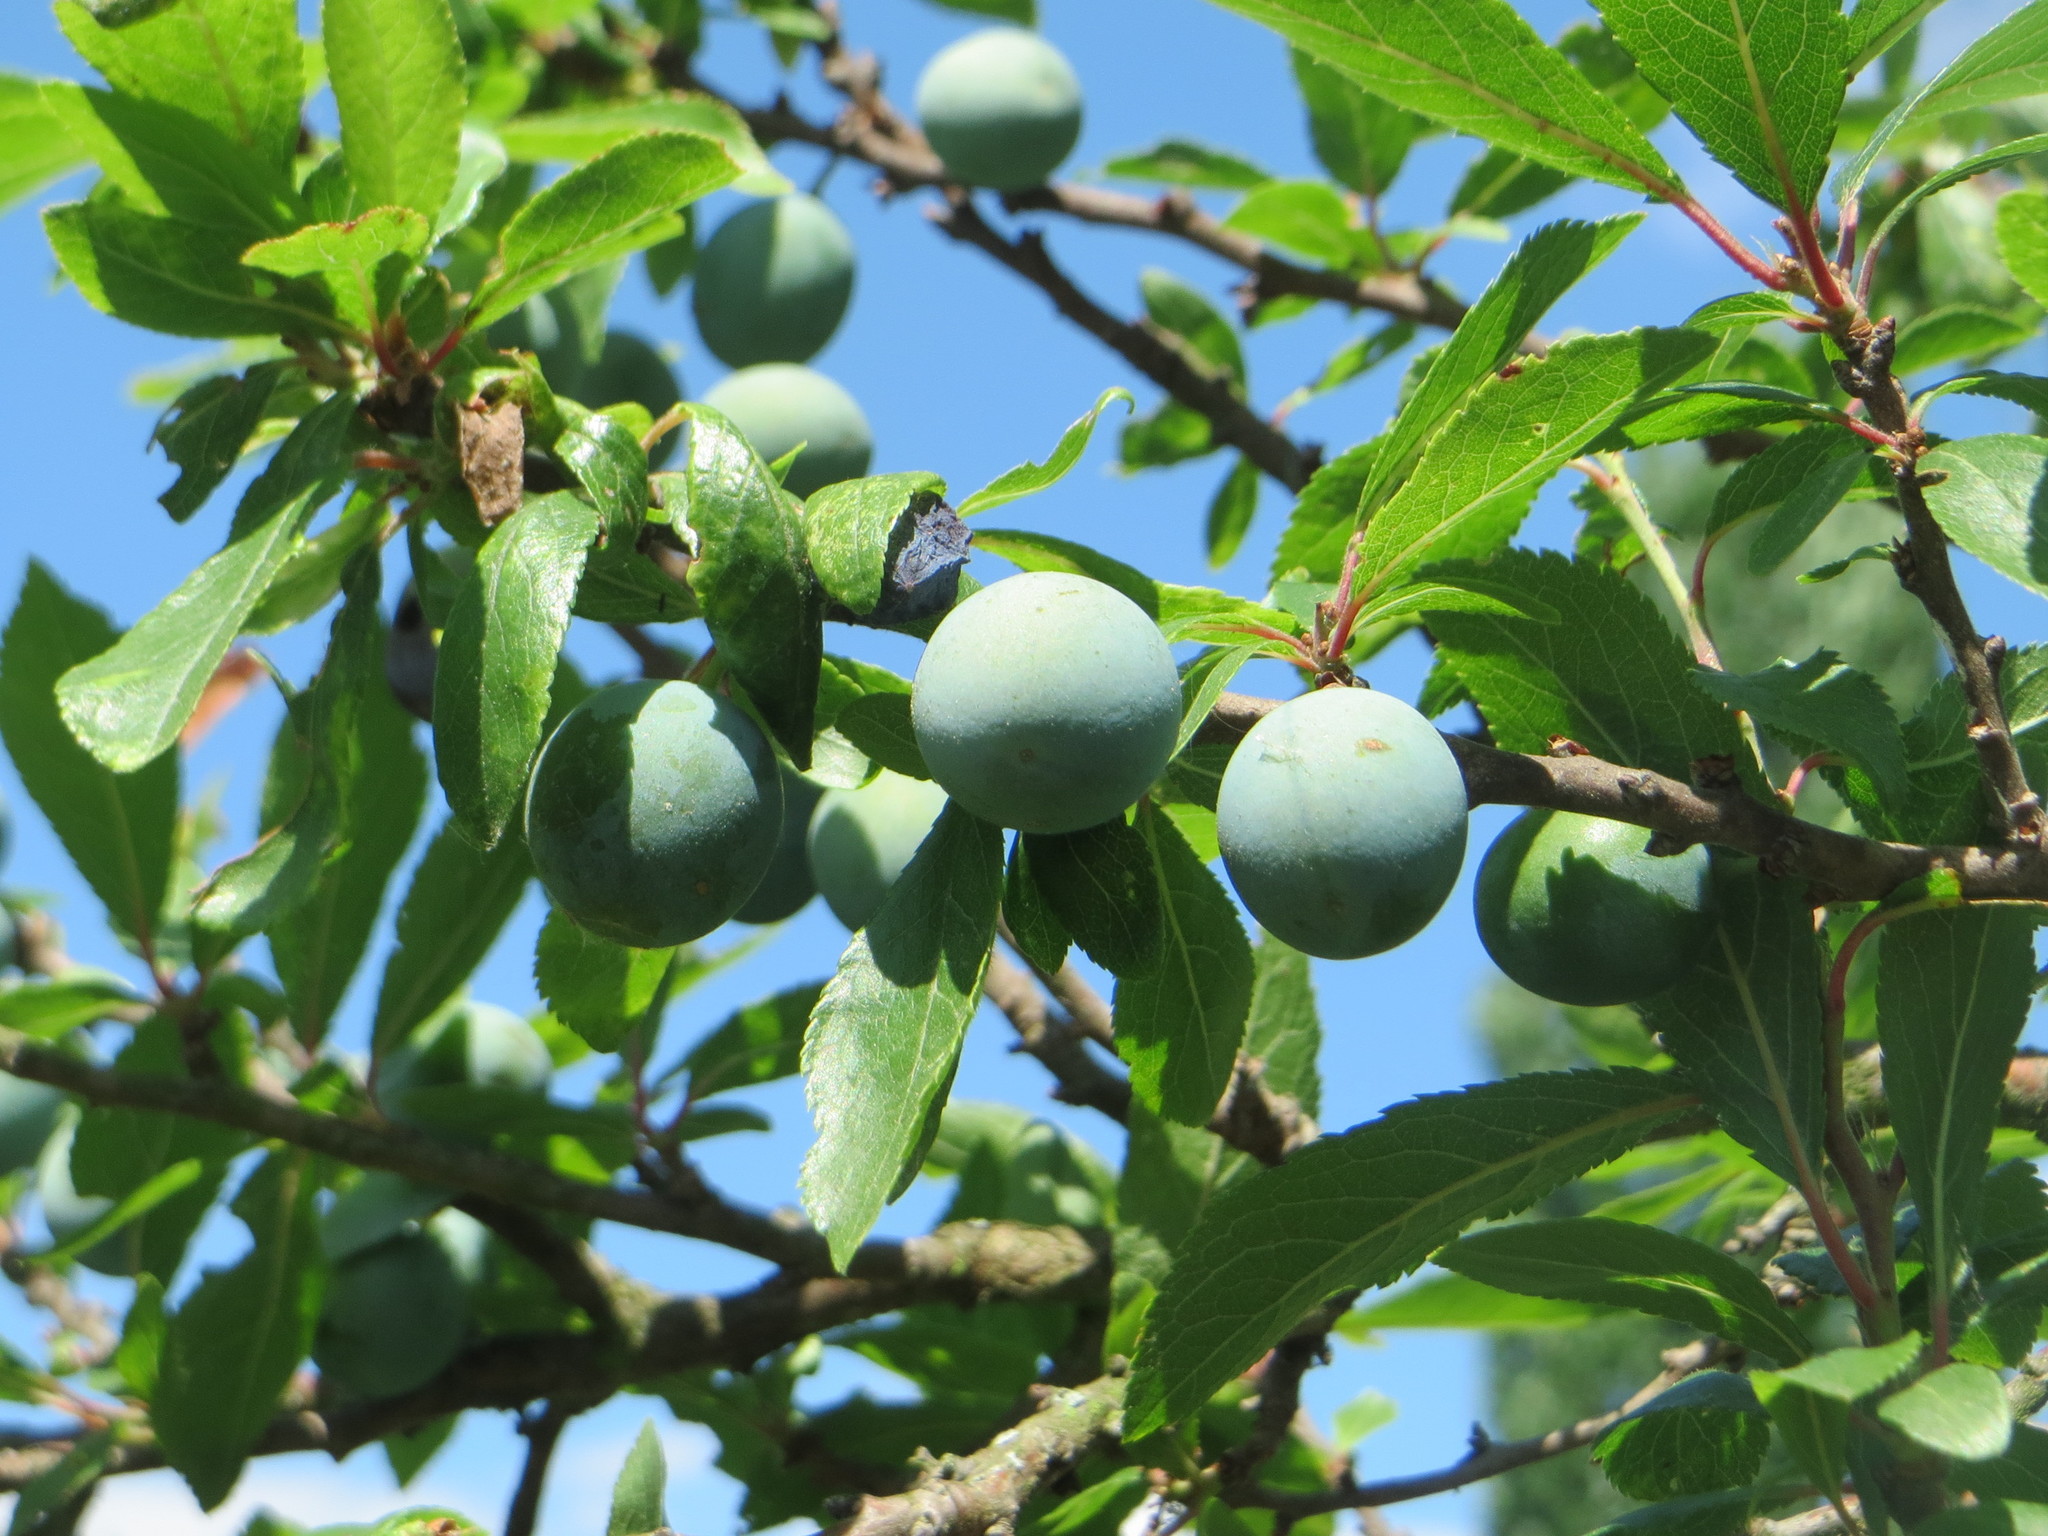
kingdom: Plantae
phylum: Tracheophyta
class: Magnoliopsida
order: Rosales
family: Rosaceae
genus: Prunus
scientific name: Prunus spinosa
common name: Blackthorn
